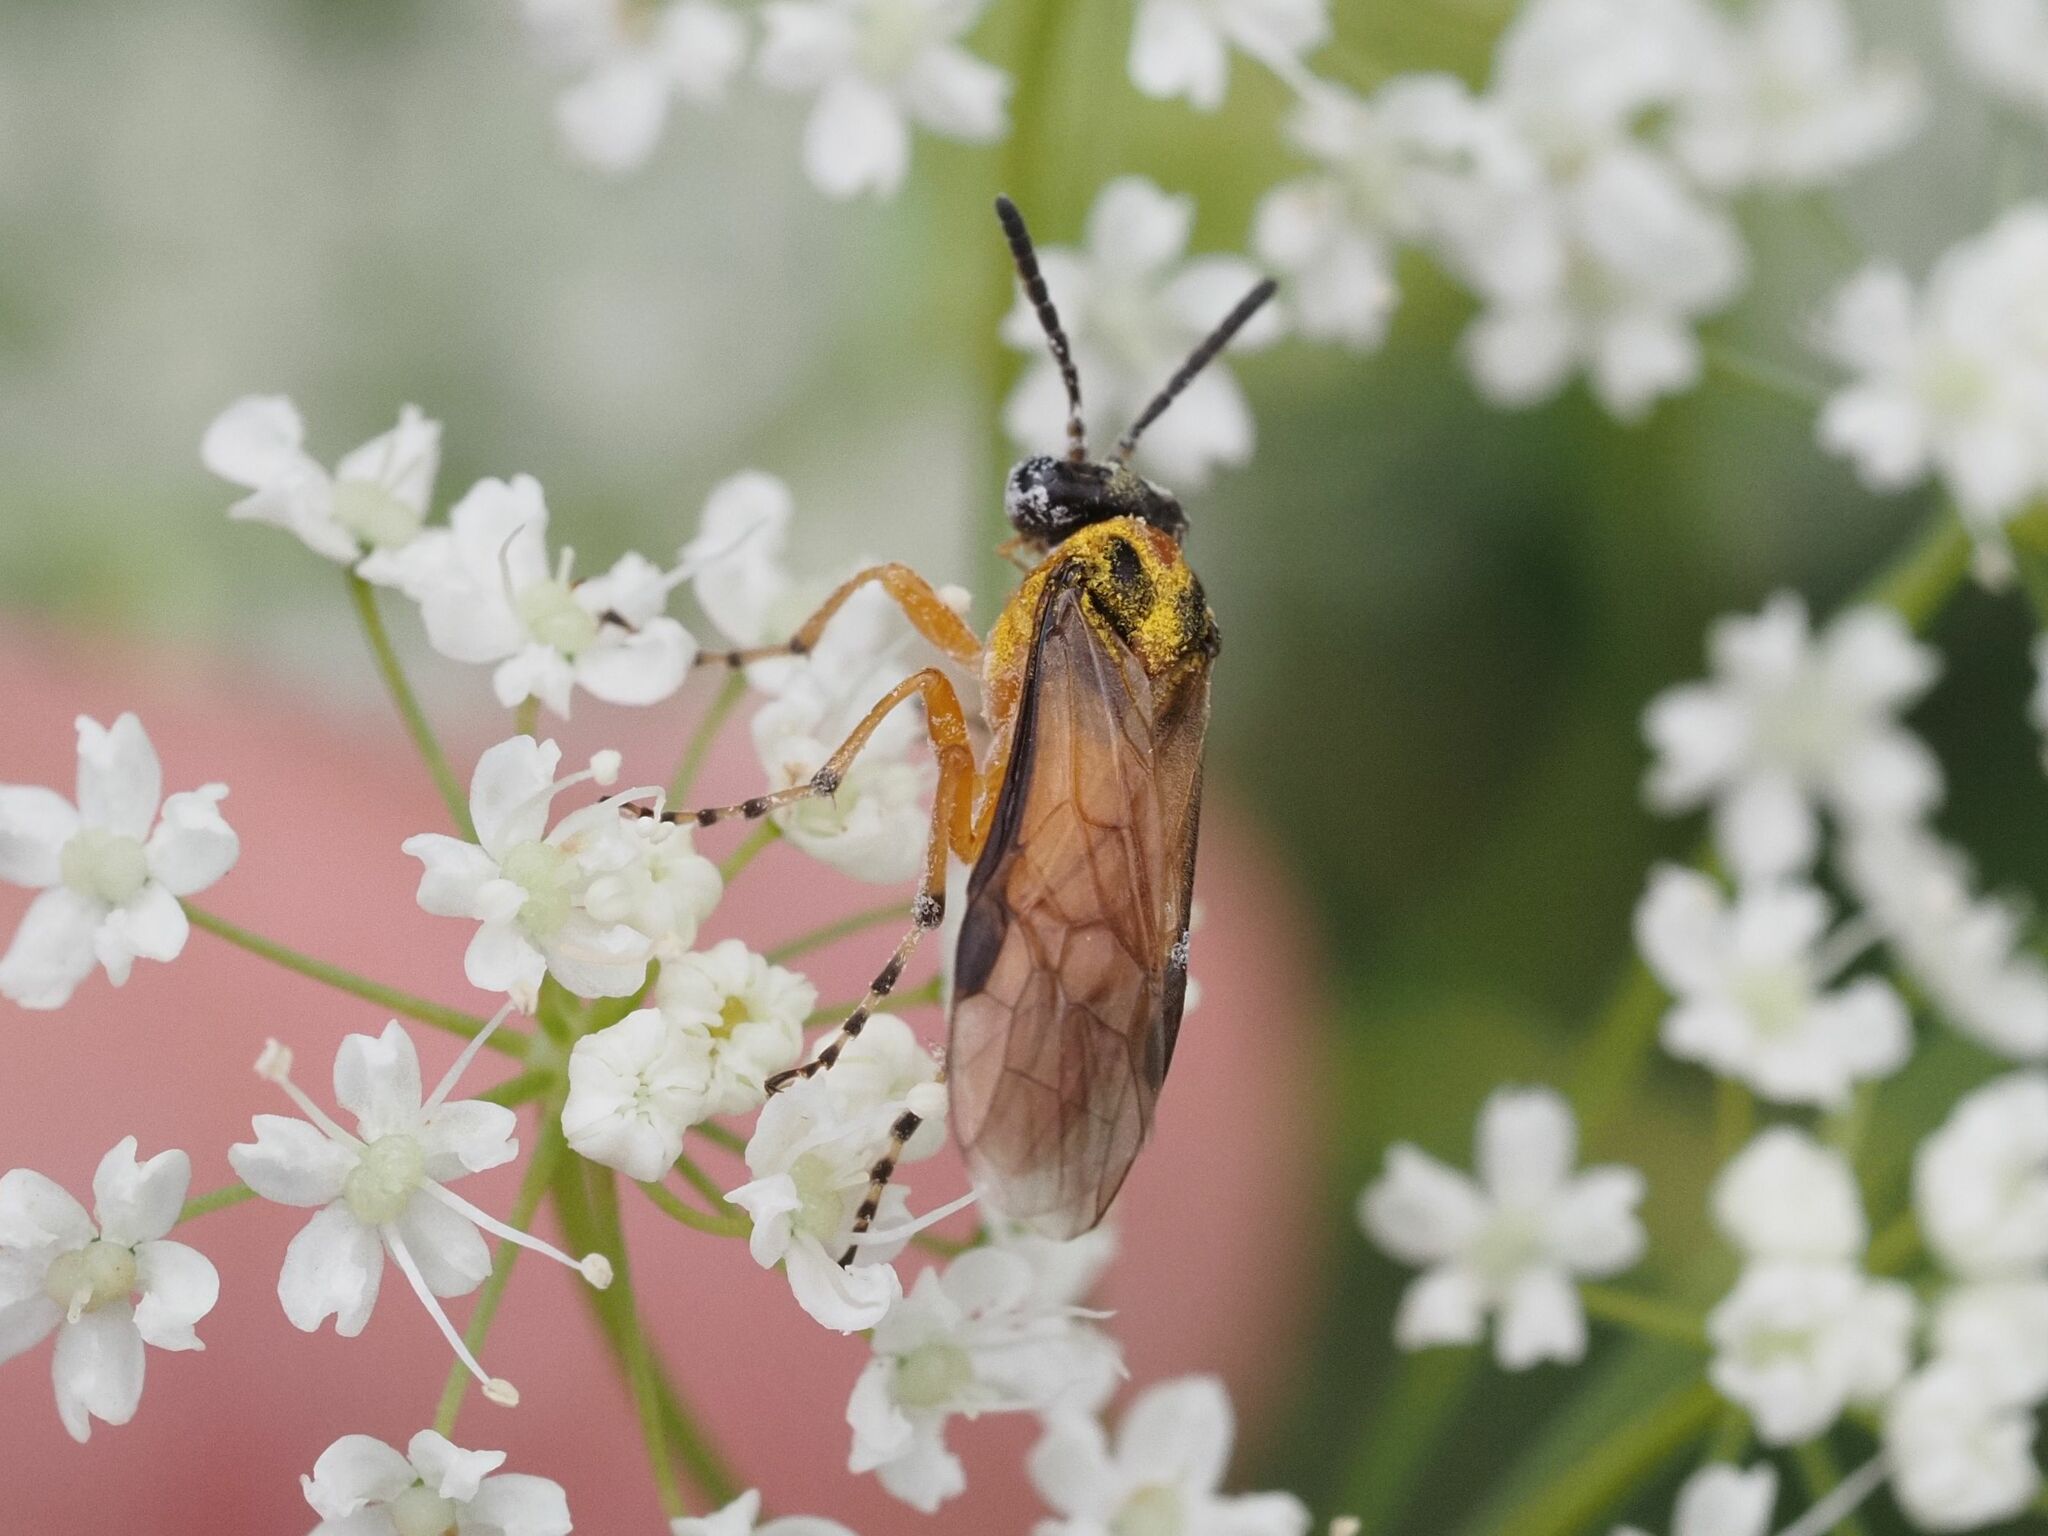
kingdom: Animalia
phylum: Arthropoda
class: Insecta
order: Hymenoptera
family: Tenthredinidae
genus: Athalia
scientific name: Athalia rosae
